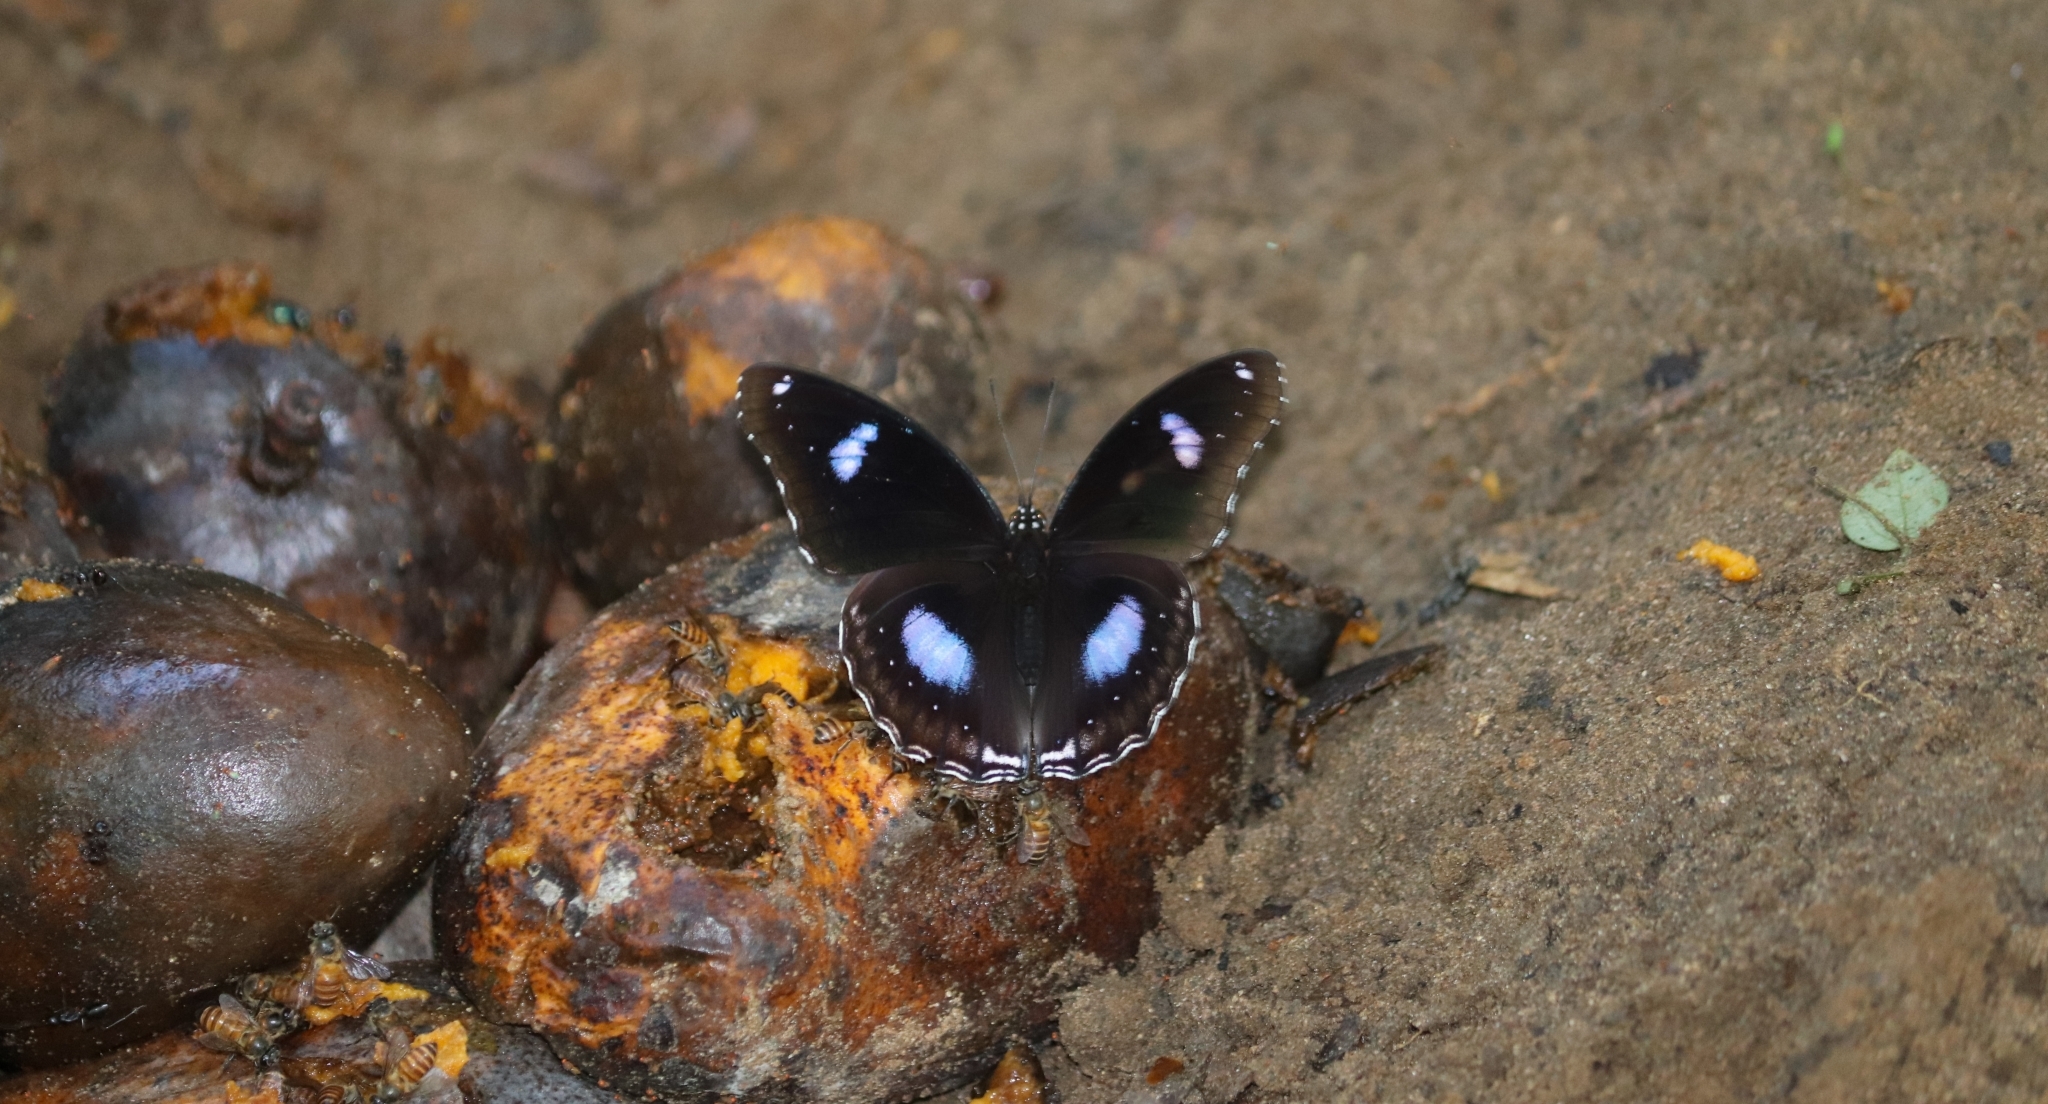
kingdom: Animalia
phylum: Arthropoda
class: Insecta
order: Lepidoptera
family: Nymphalidae
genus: Hypolimnas
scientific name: Hypolimnas bolina
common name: Great eggfly
